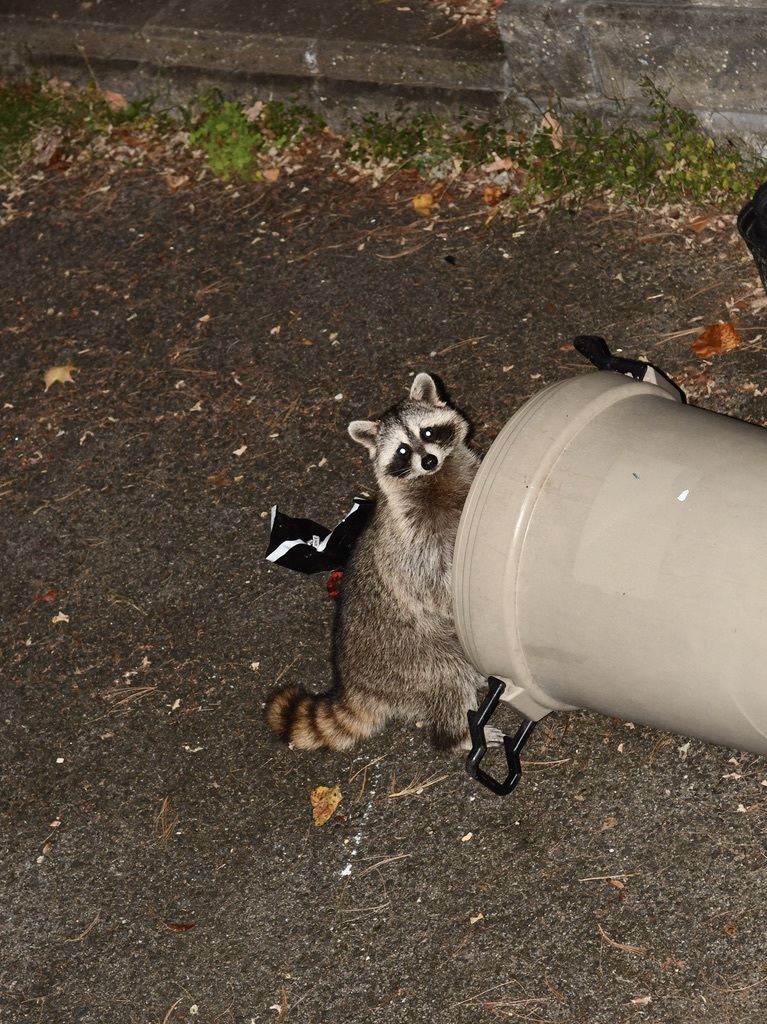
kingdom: Animalia
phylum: Chordata
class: Mammalia
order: Carnivora
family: Procyonidae
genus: Procyon
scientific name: Procyon lotor
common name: Raccoon
